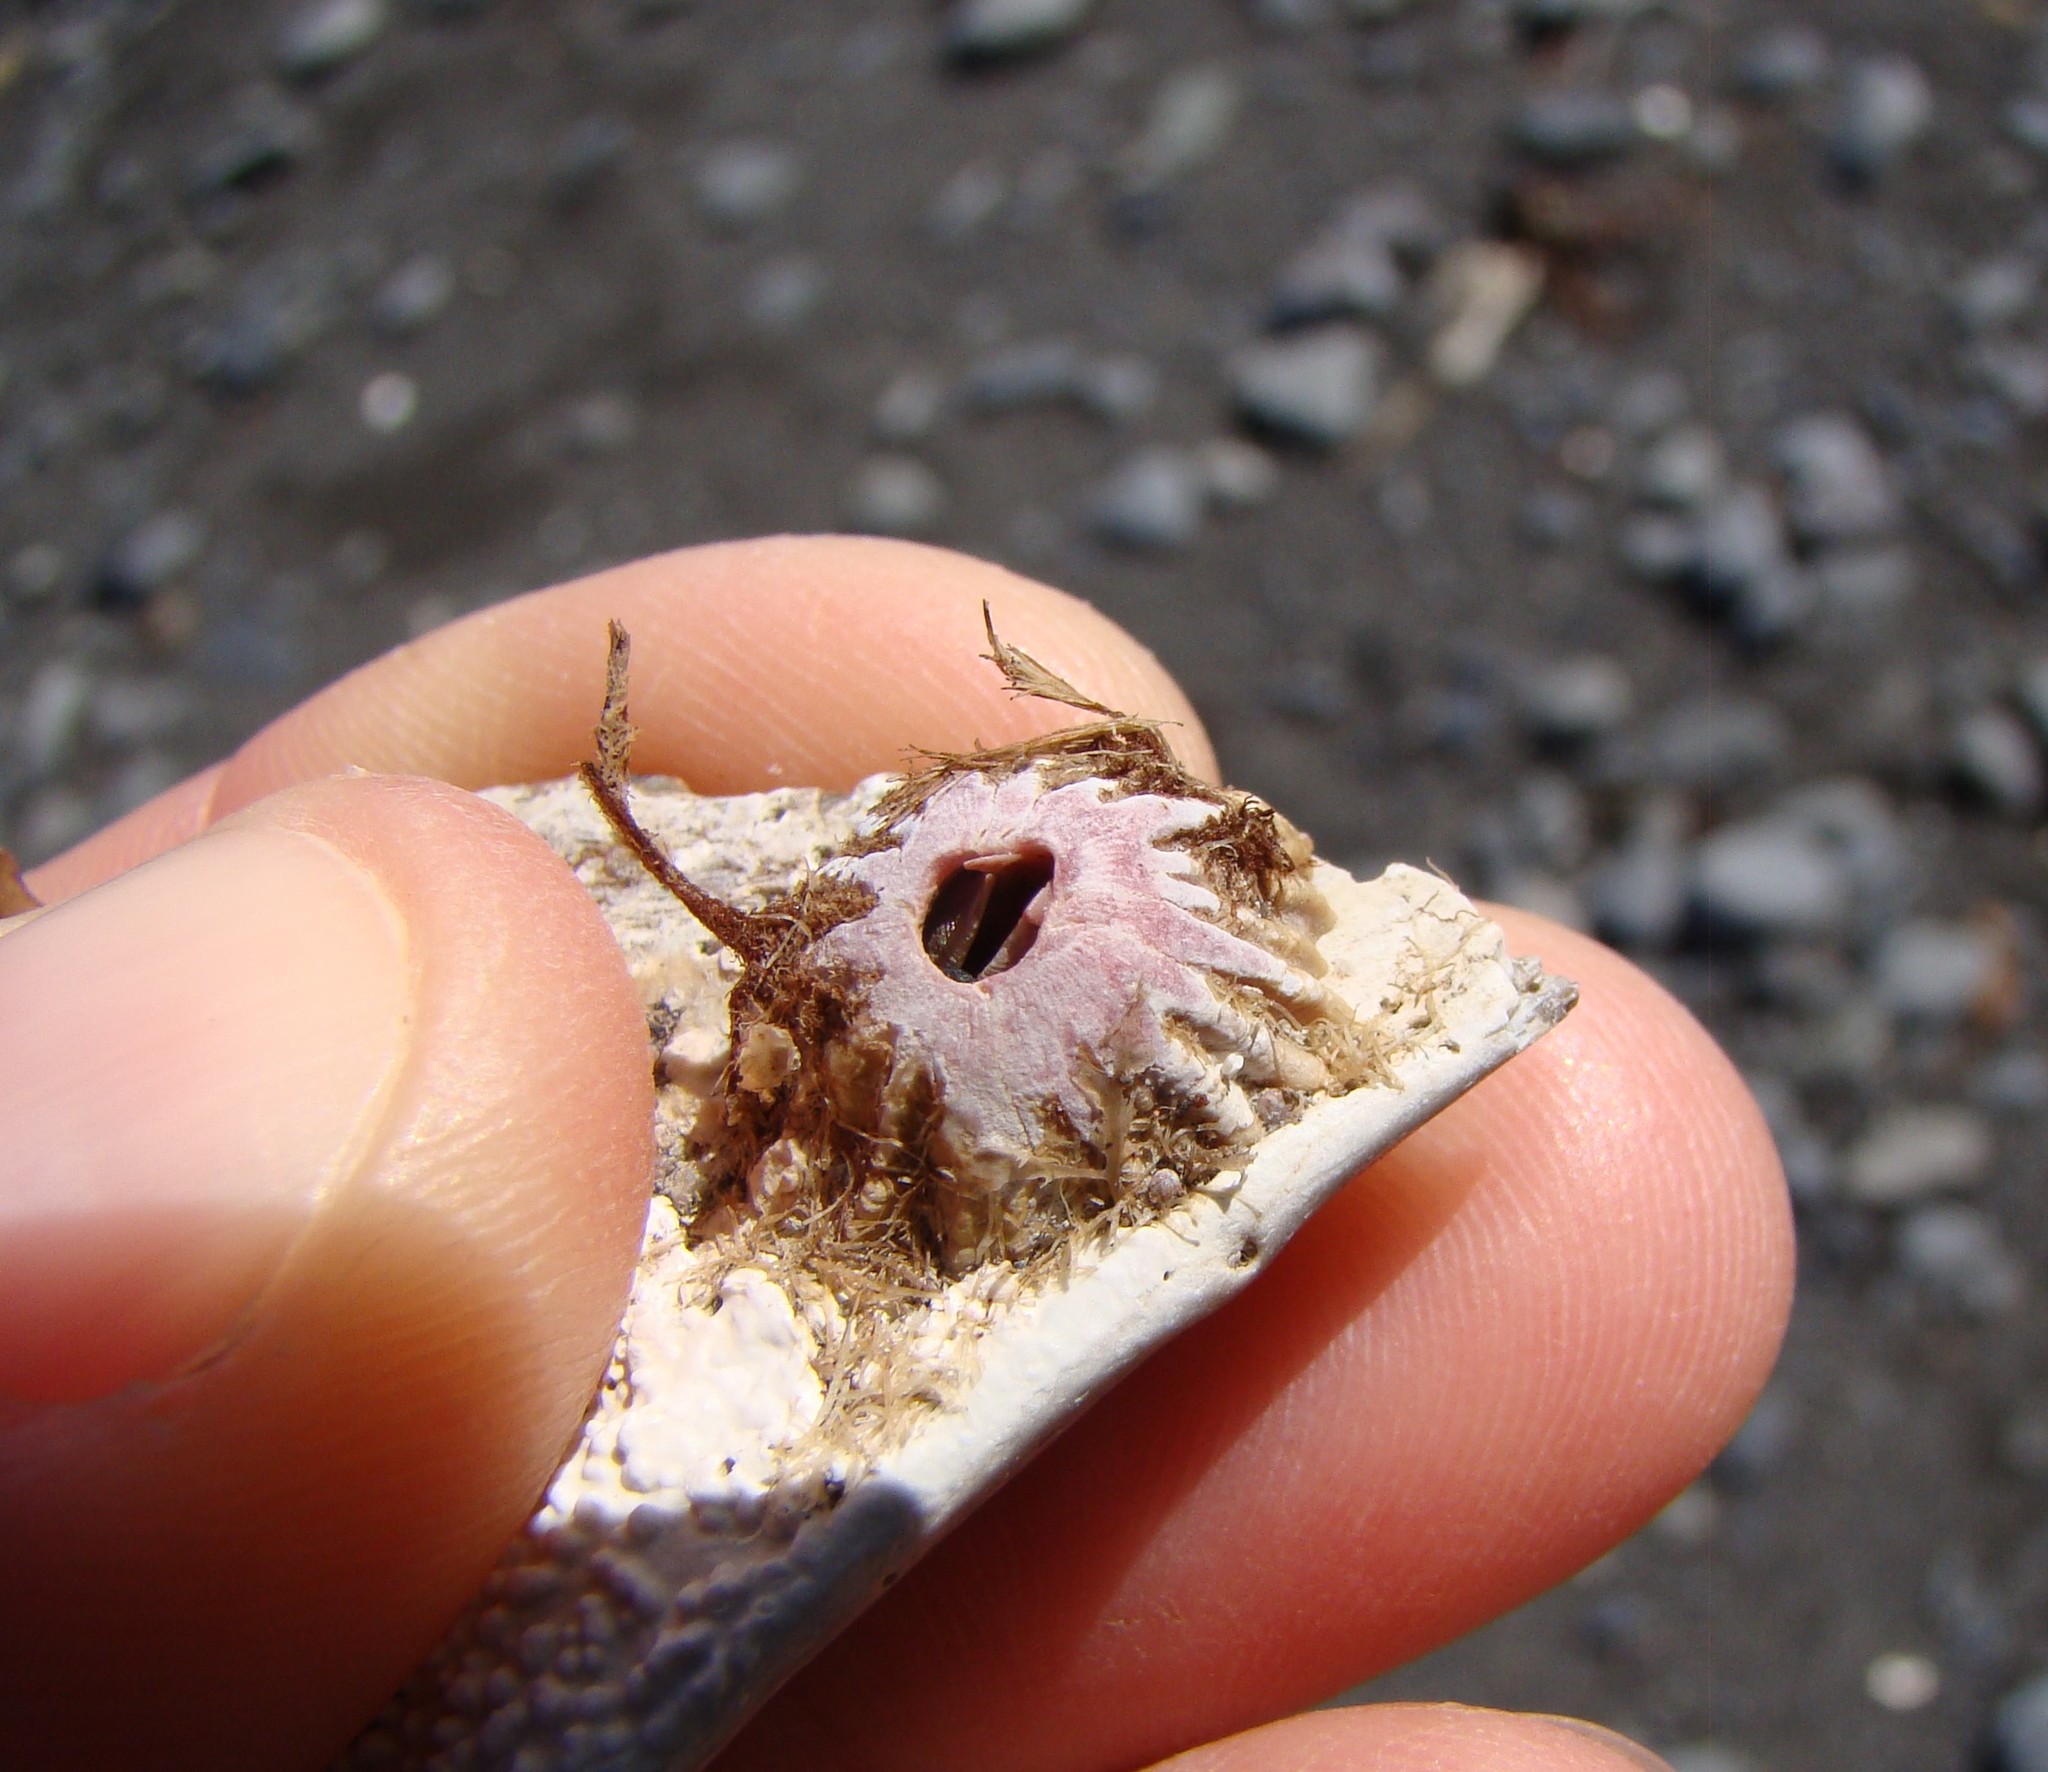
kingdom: Animalia
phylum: Arthropoda
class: Maxillopoda
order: Sessilia
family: Balanidae
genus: Notobalanus
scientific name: Notobalanus vestitus
